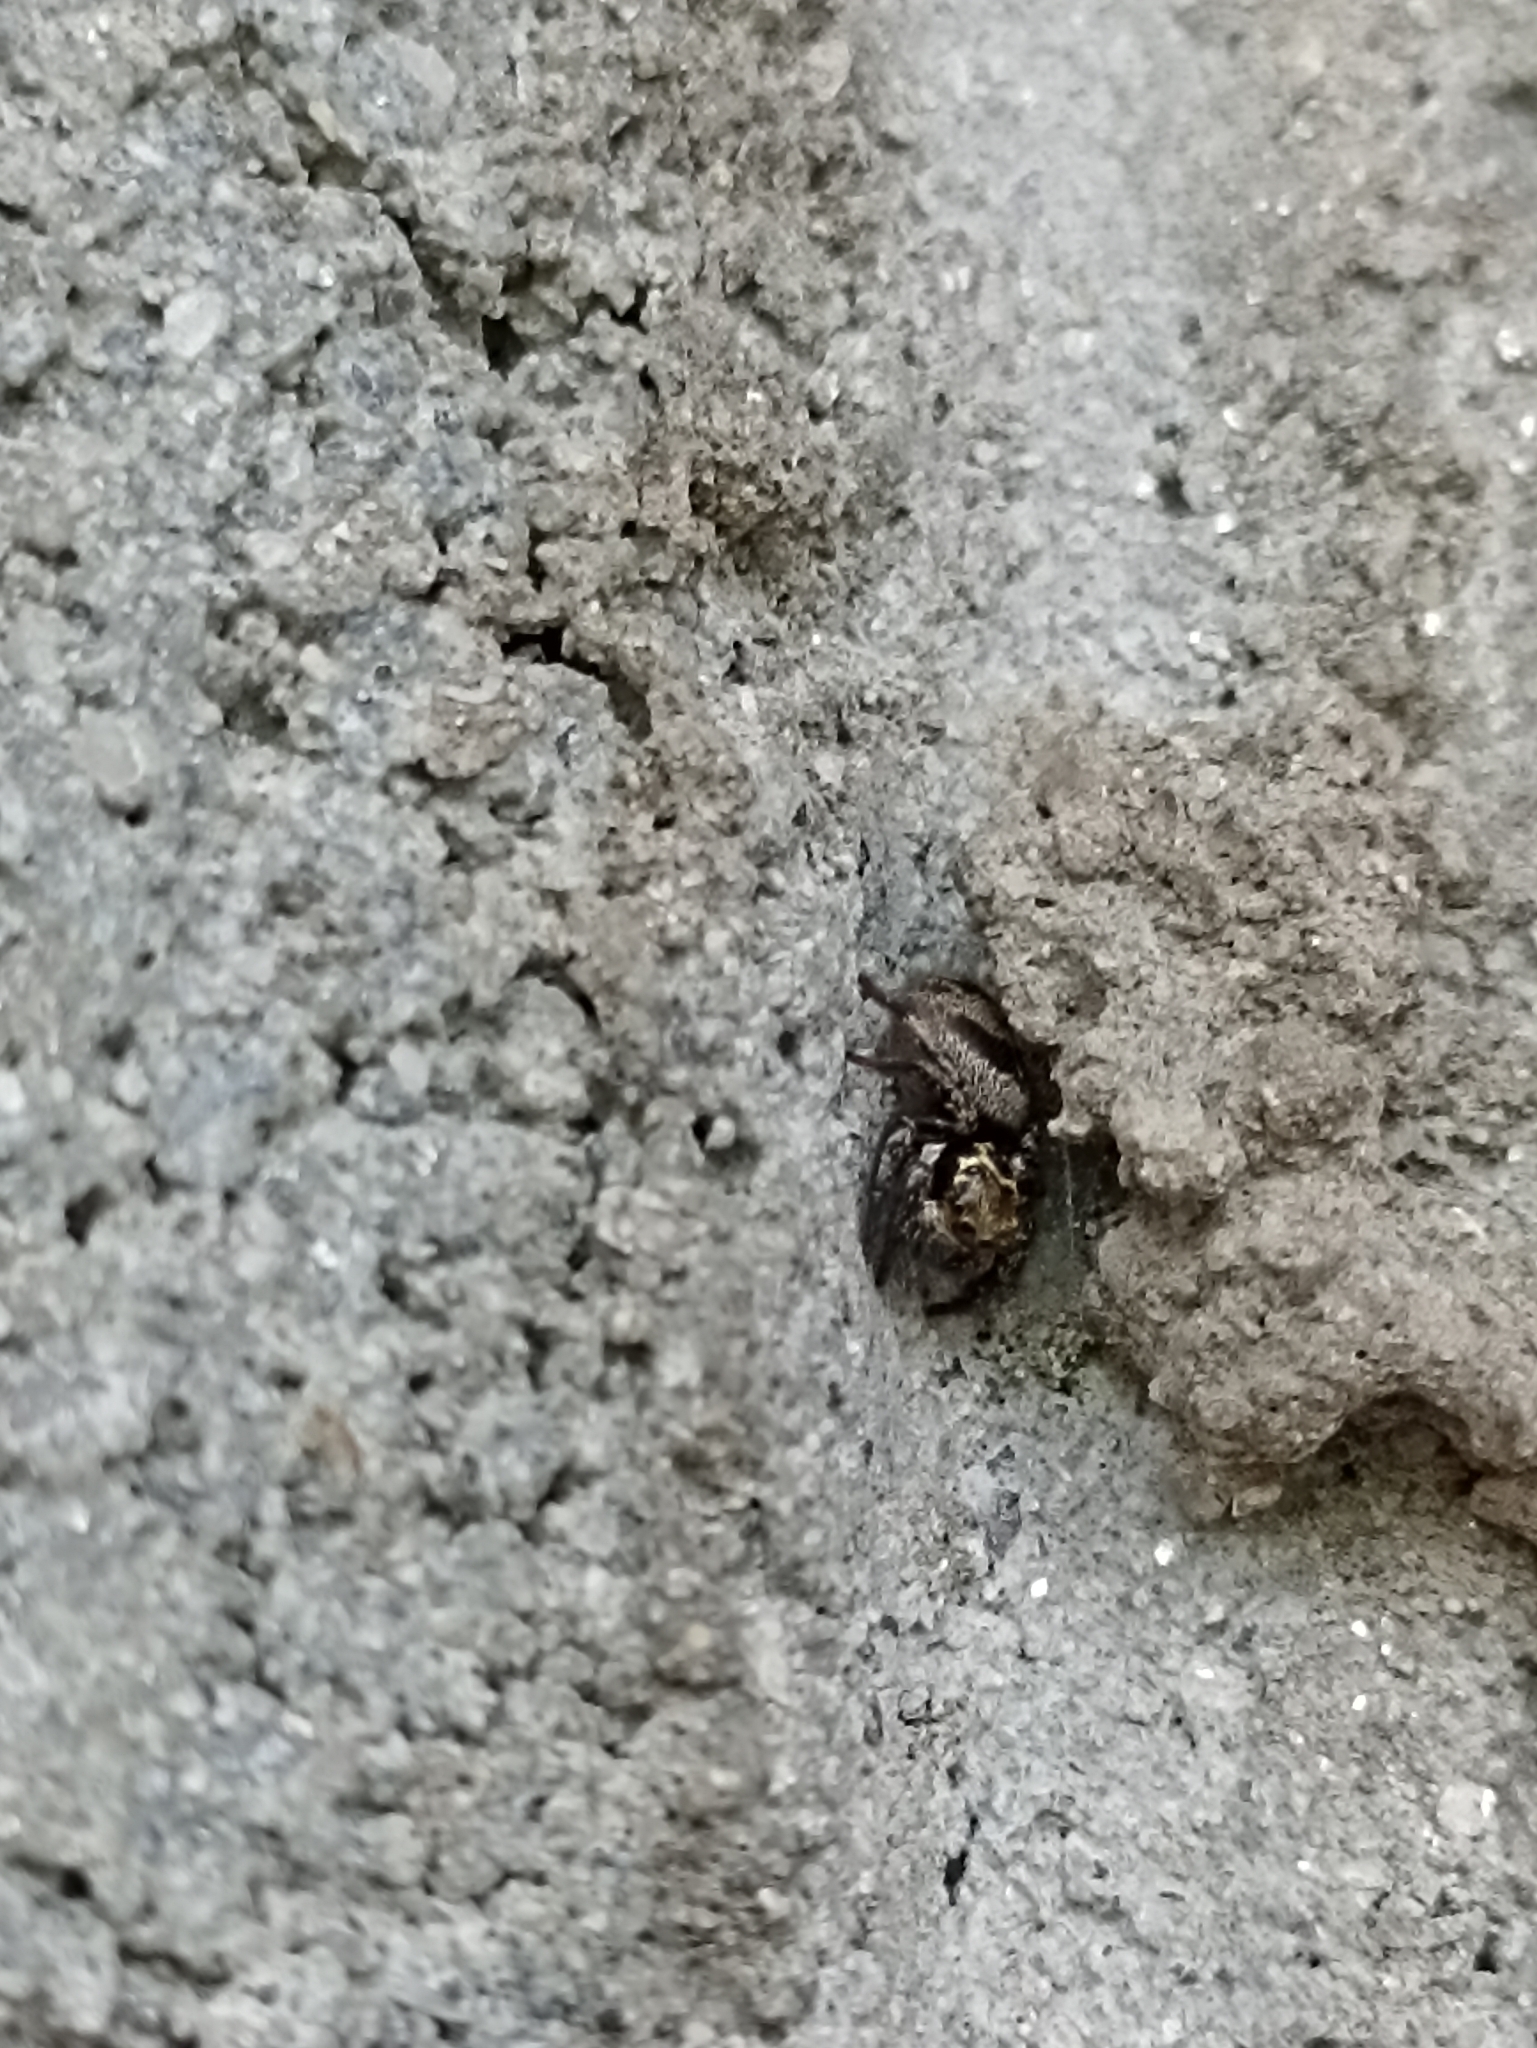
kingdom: Animalia
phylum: Arthropoda
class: Arachnida
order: Araneae
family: Salticidae
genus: Corythalia
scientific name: Corythalia conferta
